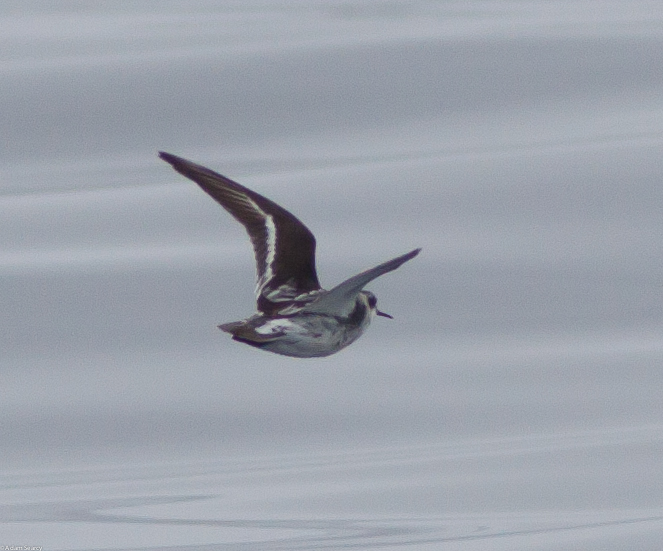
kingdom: Animalia
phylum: Chordata
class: Aves
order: Charadriiformes
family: Scolopacidae
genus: Phalaropus
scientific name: Phalaropus lobatus
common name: Red-necked phalarope
